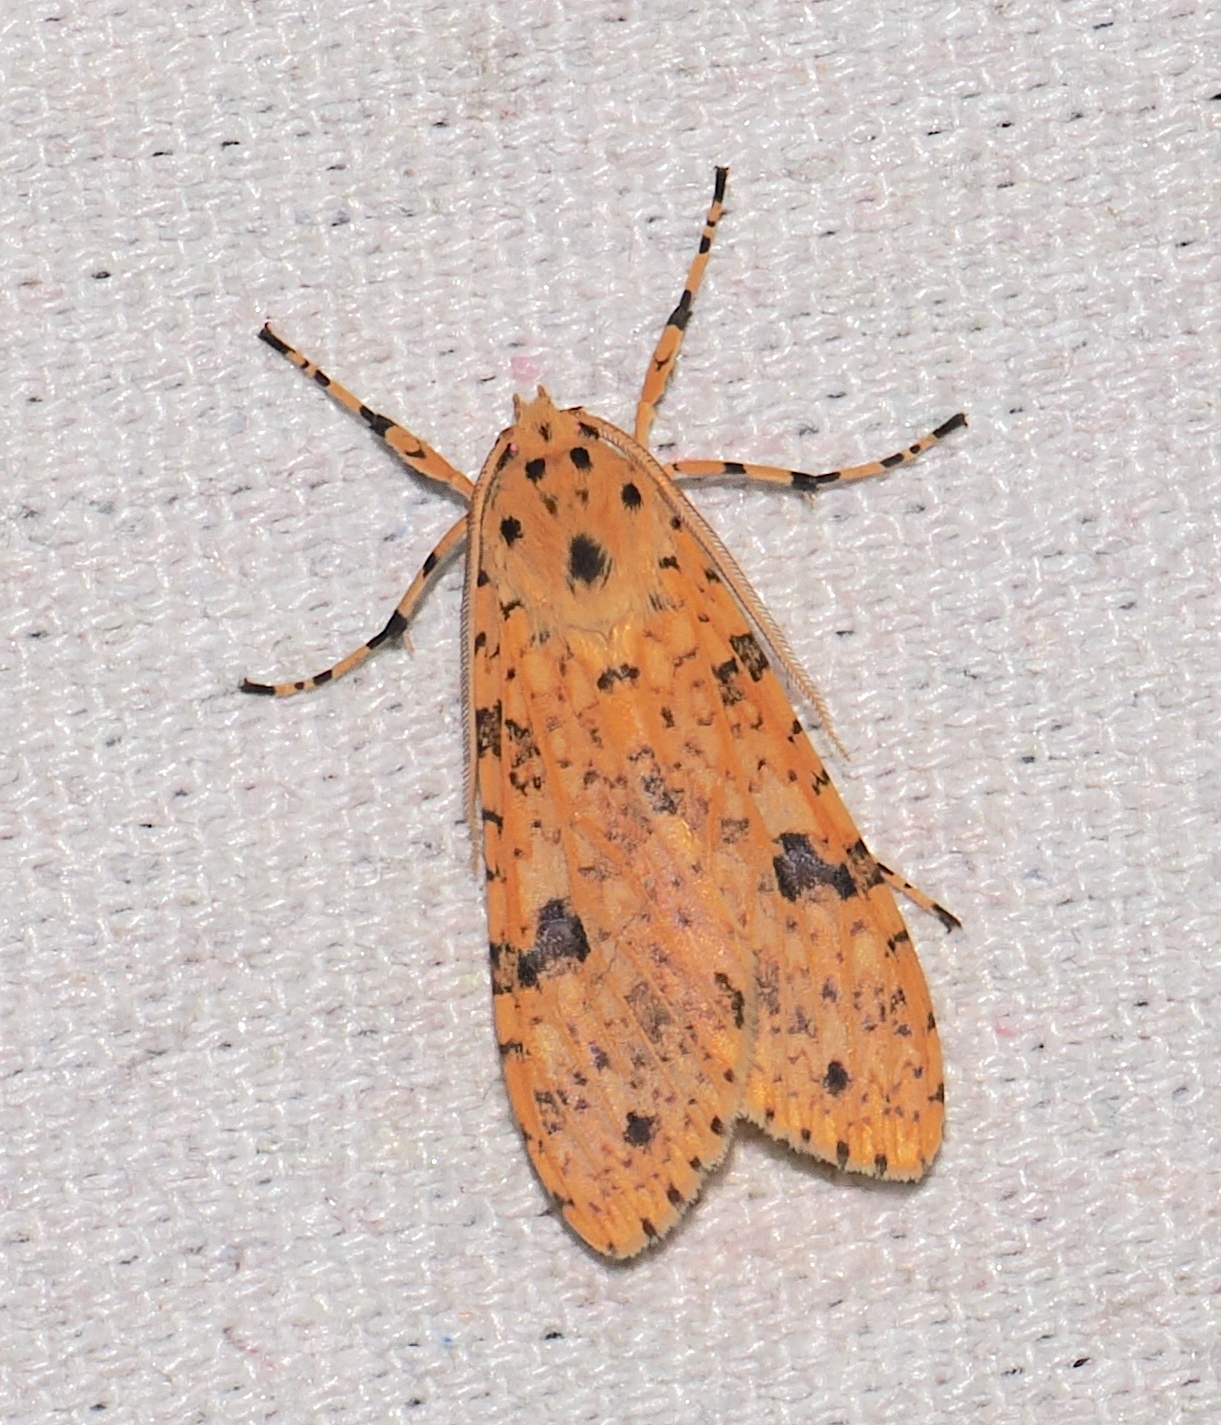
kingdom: Animalia
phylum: Arthropoda
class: Insecta
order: Lepidoptera
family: Erebidae
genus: Lophocampa
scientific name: Lophocampa dognini
